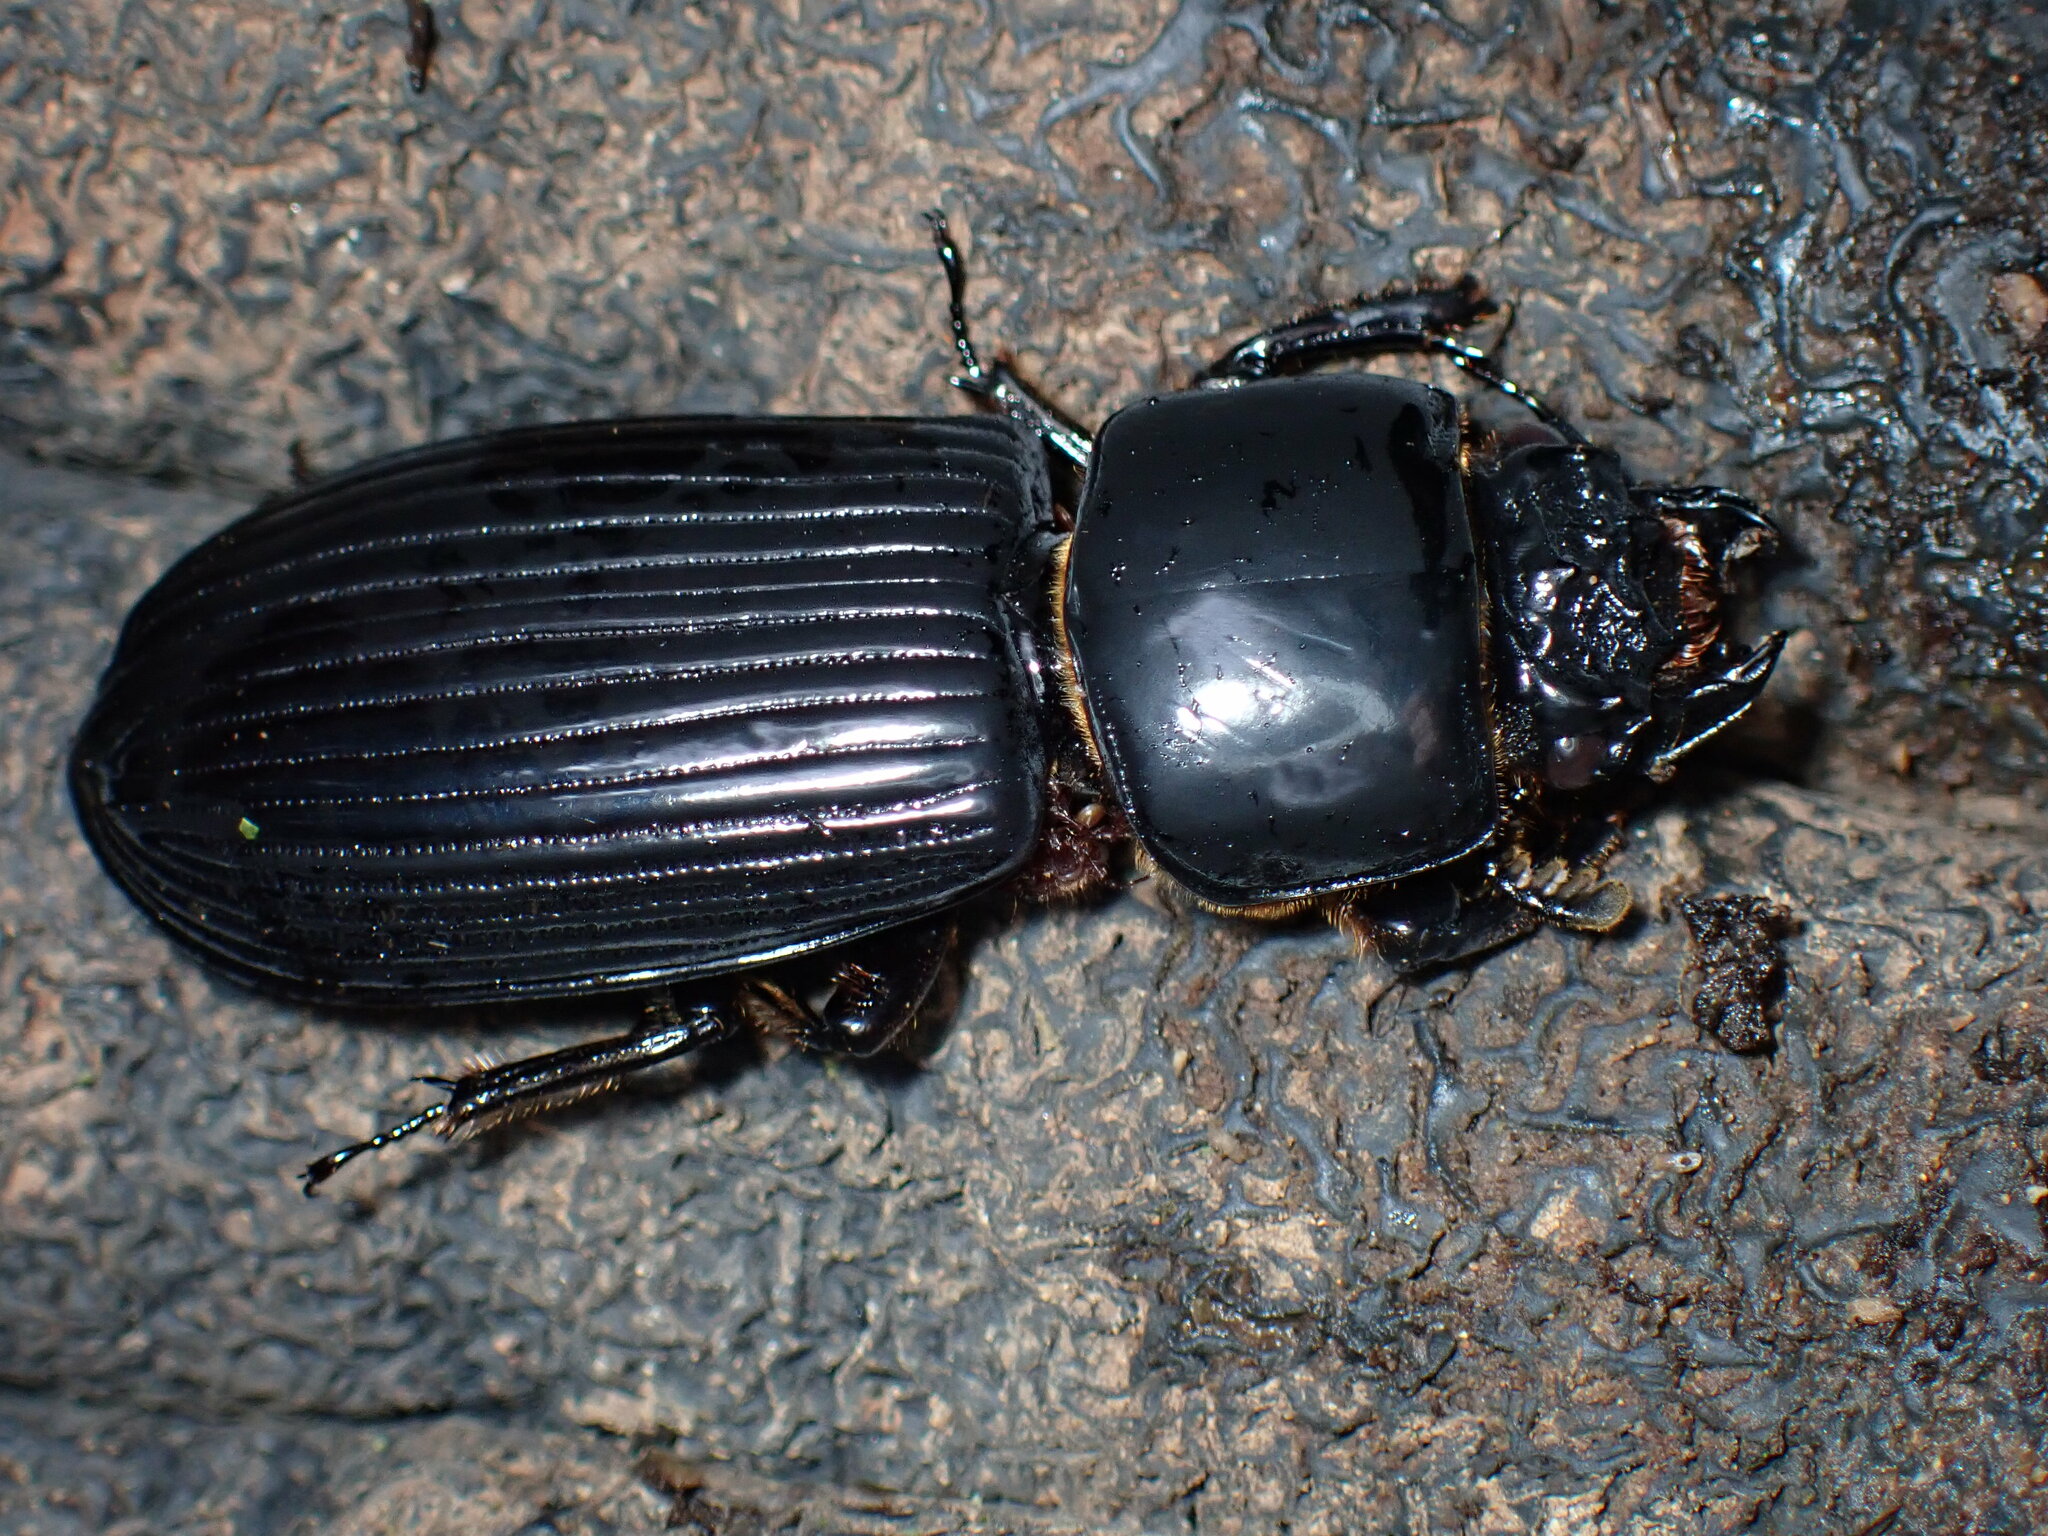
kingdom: Animalia
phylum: Arthropoda
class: Insecta
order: Coleoptera
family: Passalidae
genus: Pharochilus
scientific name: Pharochilus dilatatus
